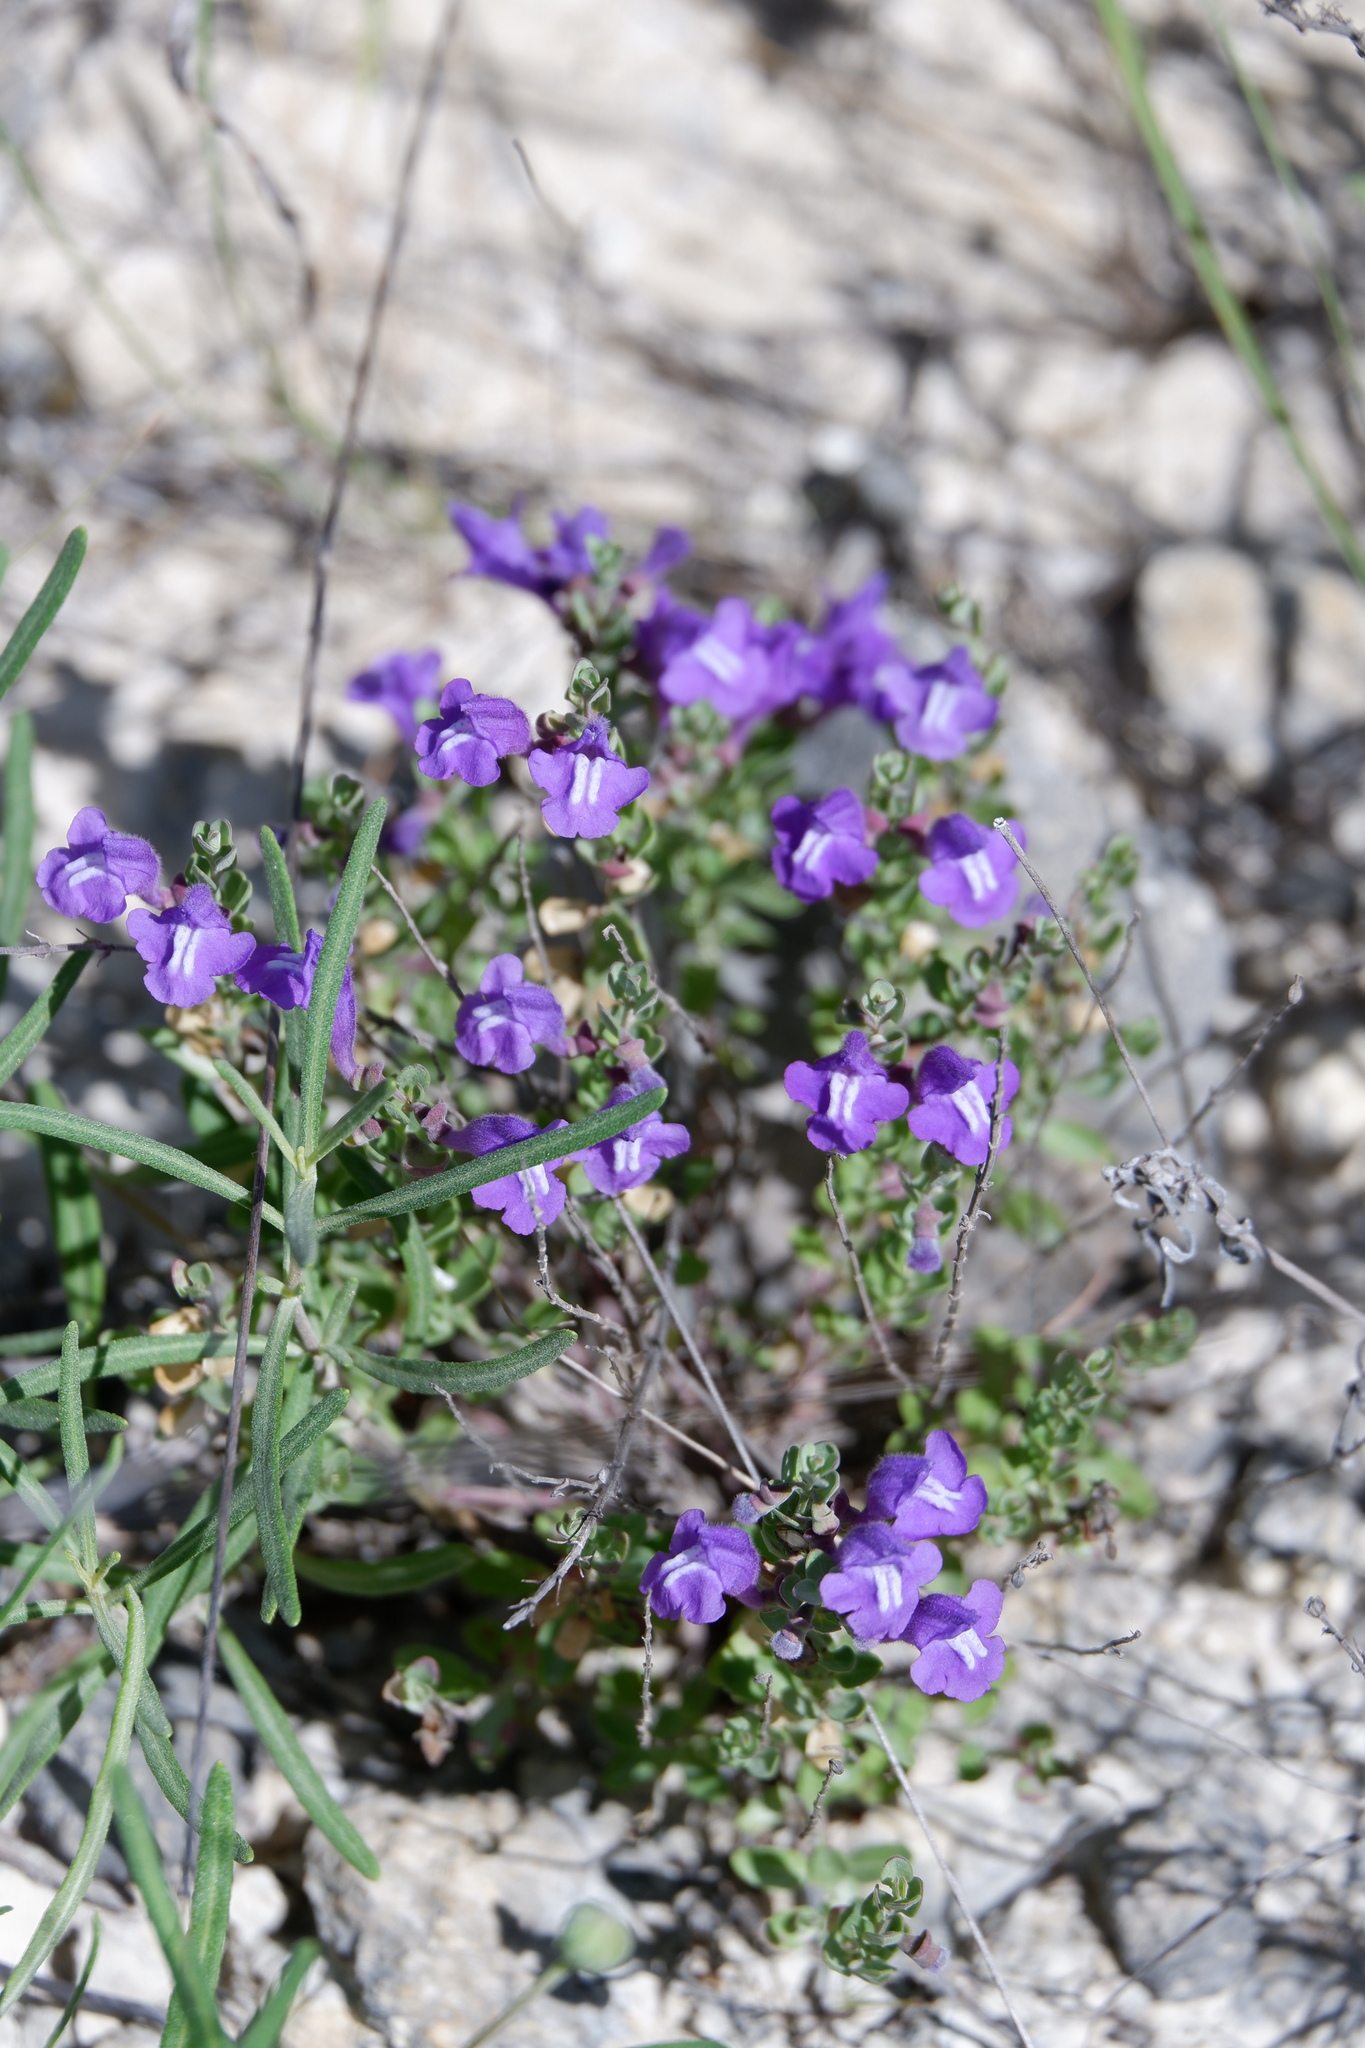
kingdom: Plantae
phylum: Tracheophyta
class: Magnoliopsida
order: Lamiales
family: Lamiaceae
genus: Scutellaria
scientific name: Scutellaria wrightii
